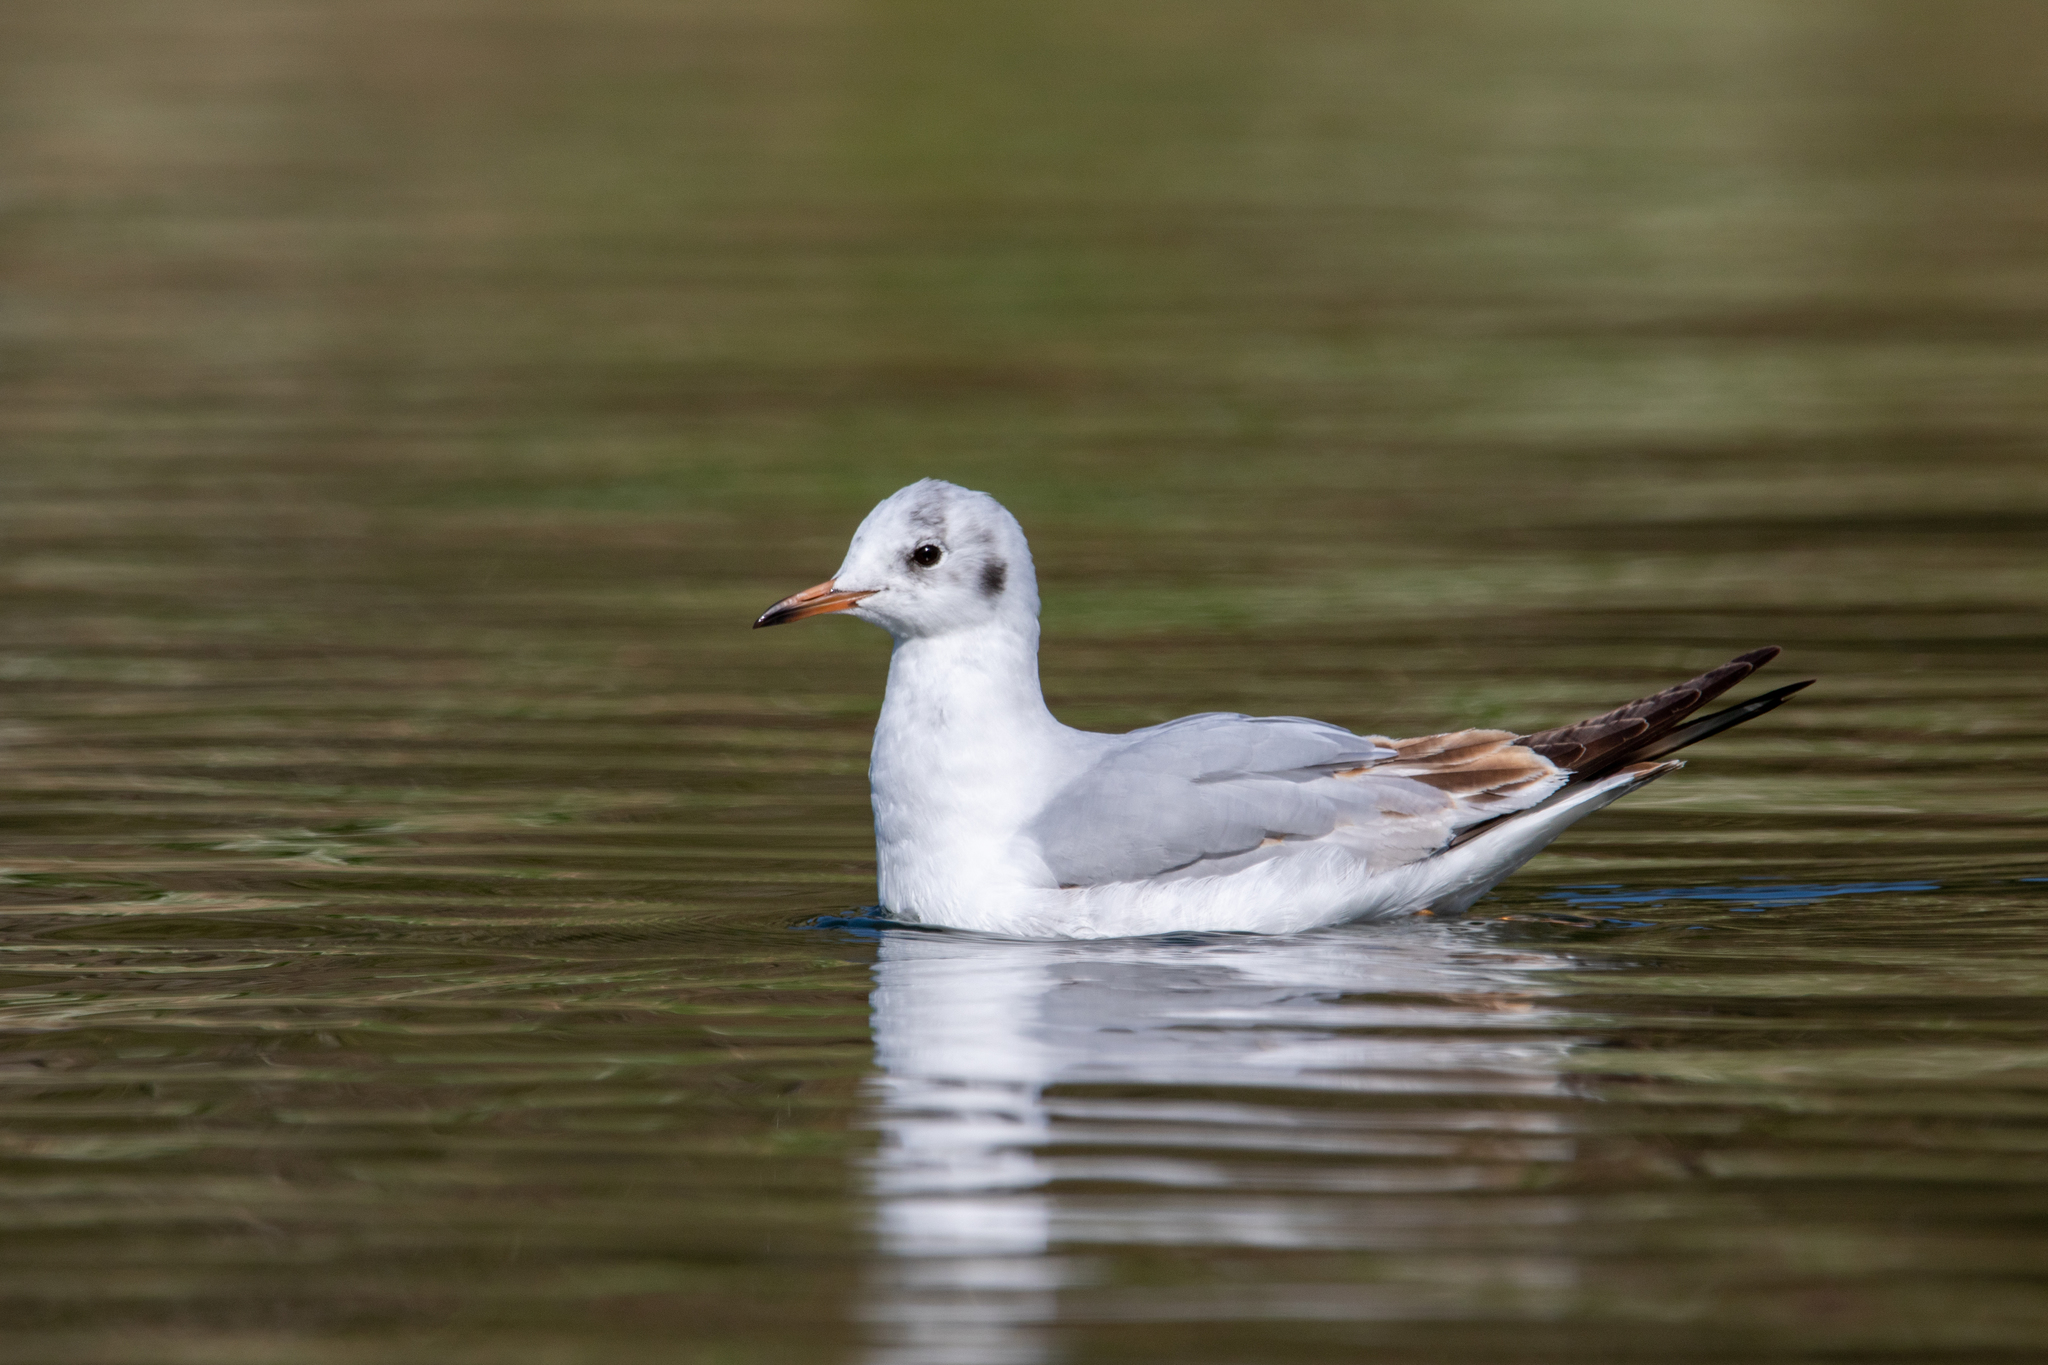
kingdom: Animalia
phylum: Chordata
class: Aves
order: Charadriiformes
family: Laridae
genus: Chroicocephalus
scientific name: Chroicocephalus ridibundus
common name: Black-headed gull
